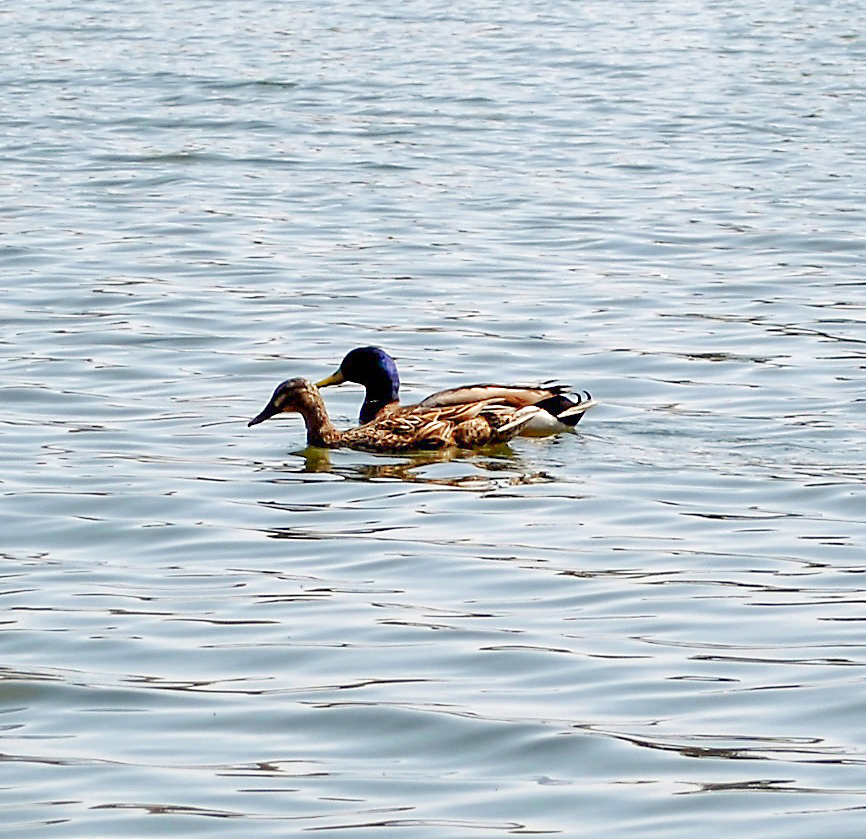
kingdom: Animalia
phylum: Chordata
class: Aves
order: Anseriformes
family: Anatidae
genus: Anas
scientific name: Anas platyrhynchos
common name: Mallard
